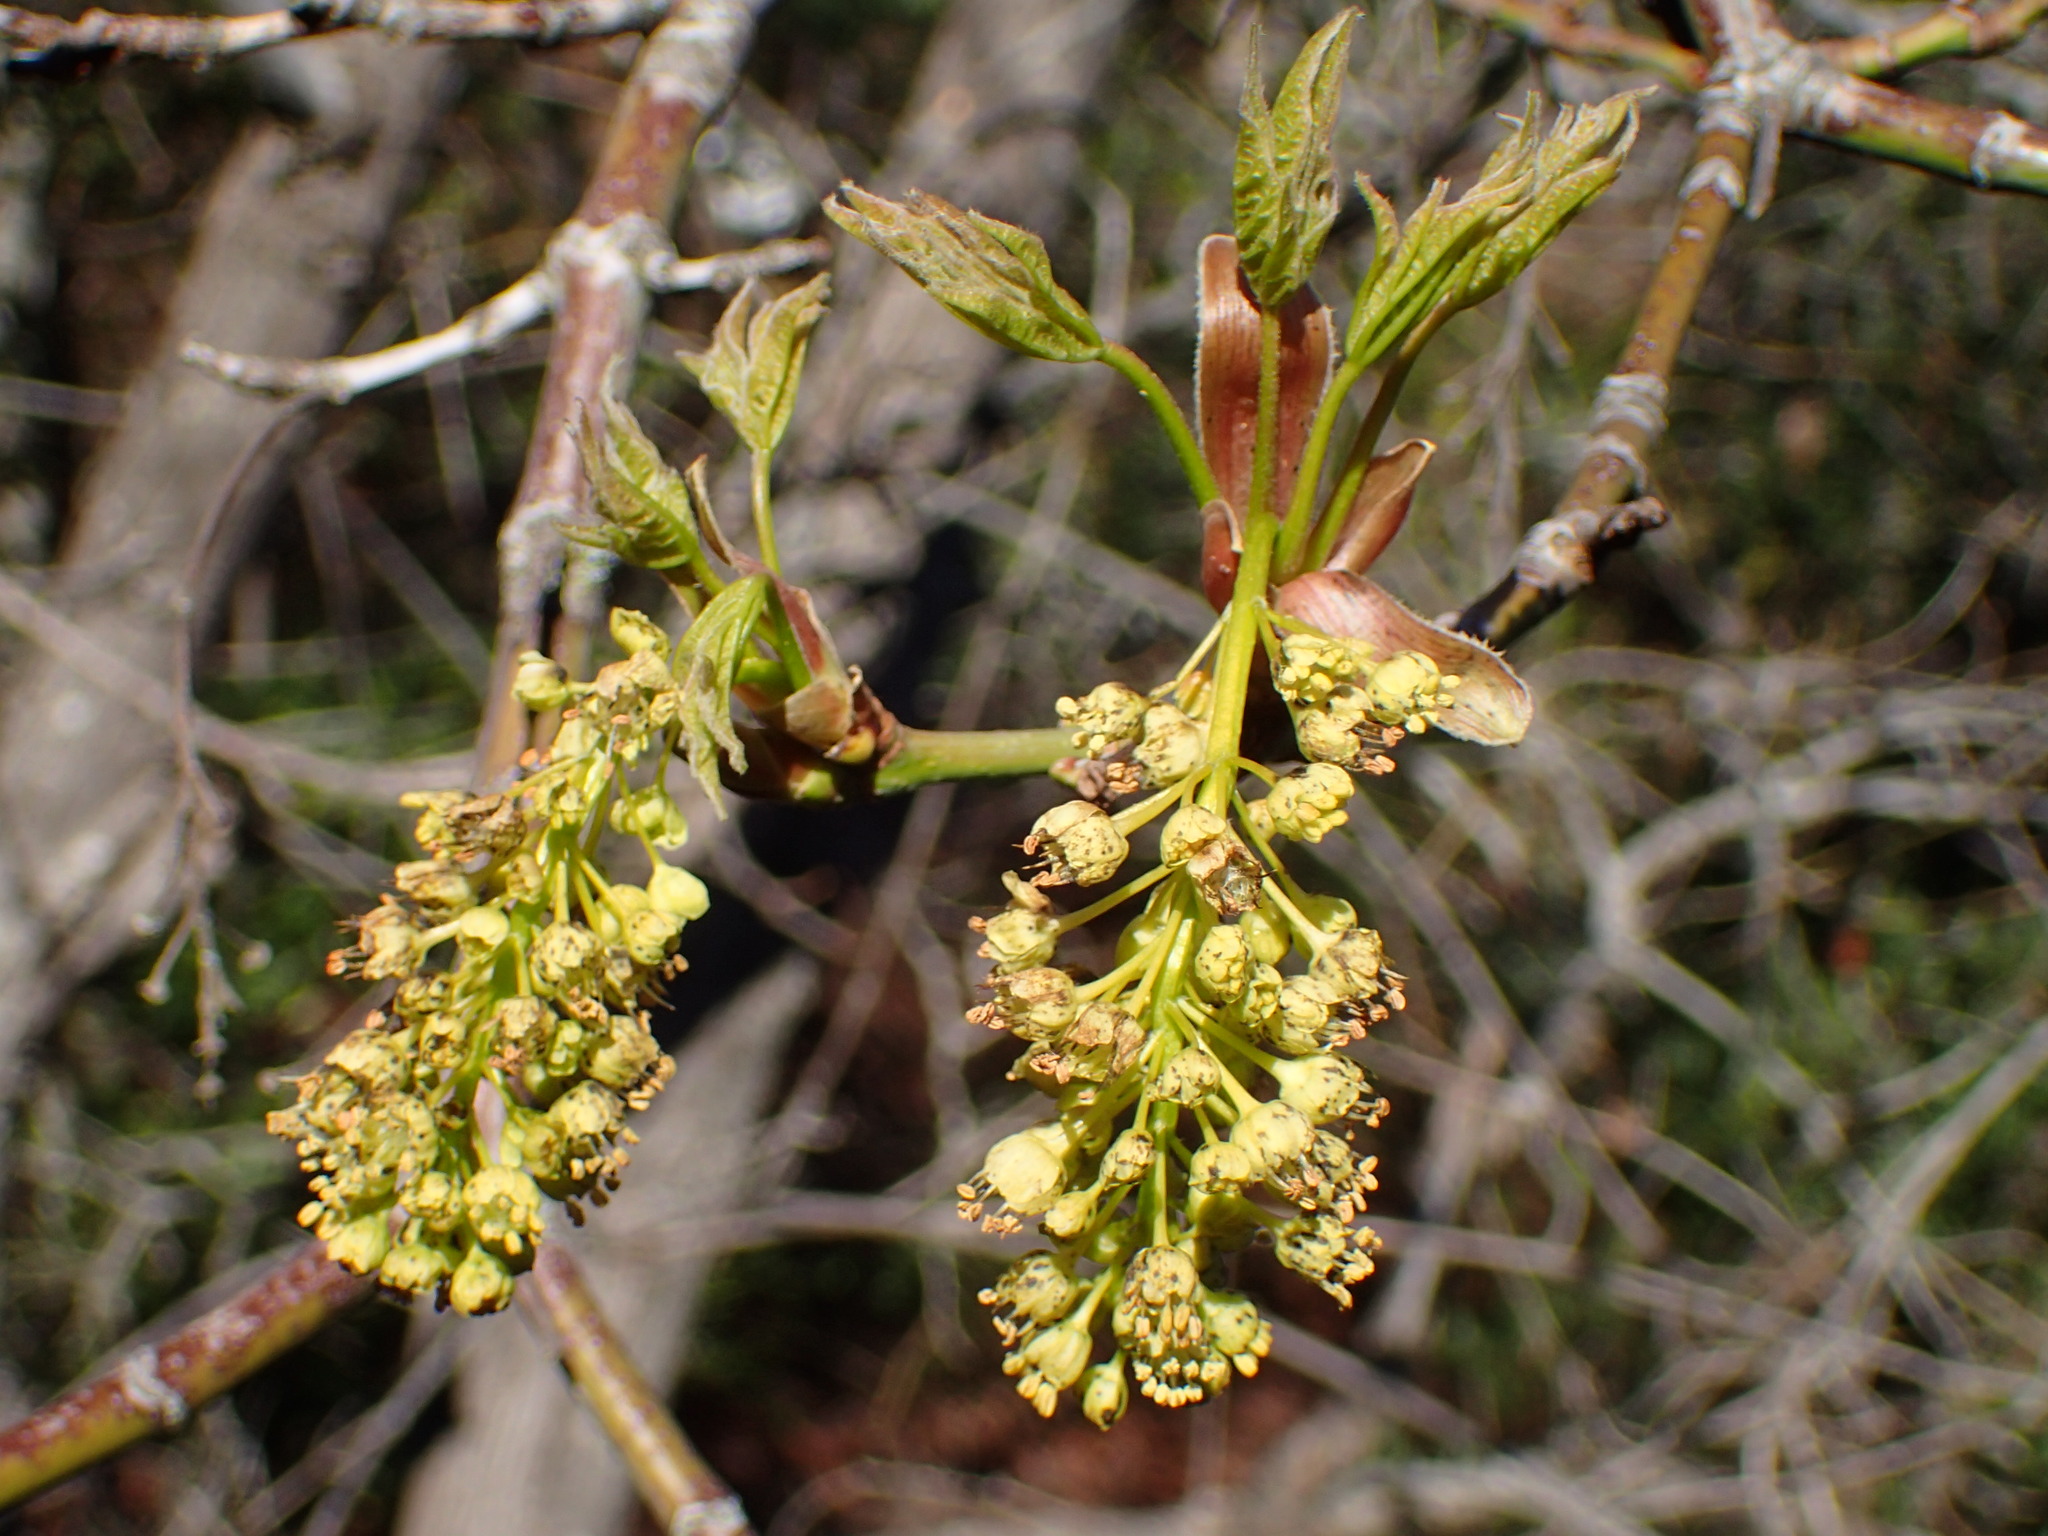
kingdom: Plantae
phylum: Tracheophyta
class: Magnoliopsida
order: Sapindales
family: Sapindaceae
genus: Acer
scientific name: Acer macrophyllum
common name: Oregon maple
